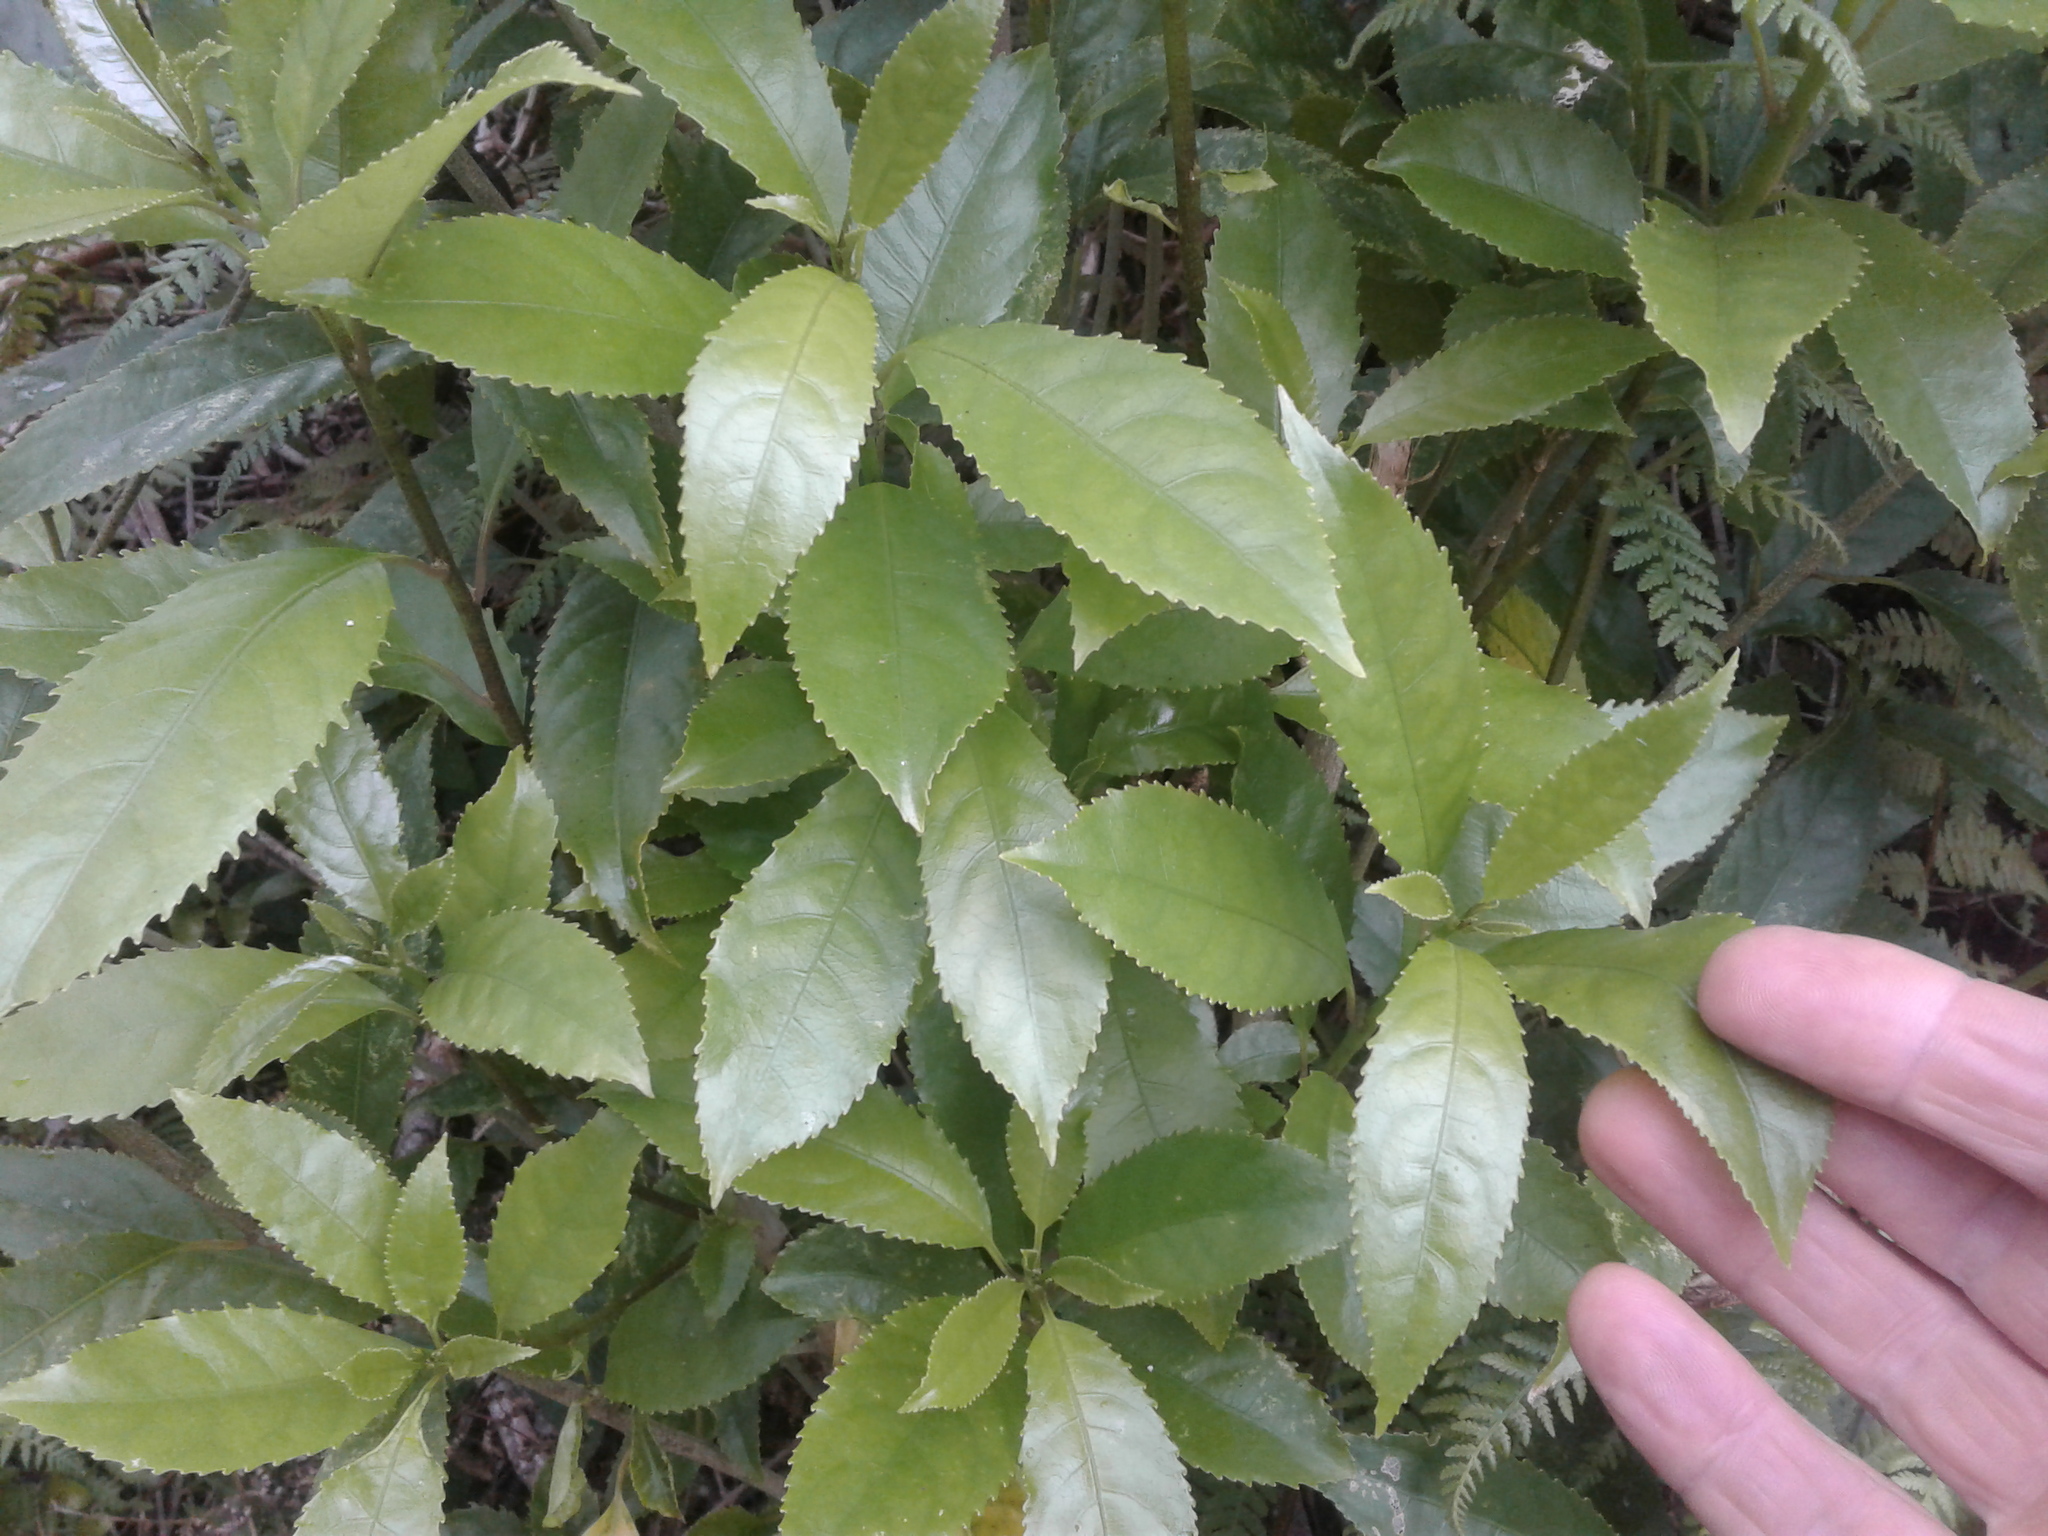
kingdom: Plantae
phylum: Tracheophyta
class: Magnoliopsida
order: Malpighiales
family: Violaceae
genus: Melicytus
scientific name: Melicytus ramiflorus
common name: Mahoe
